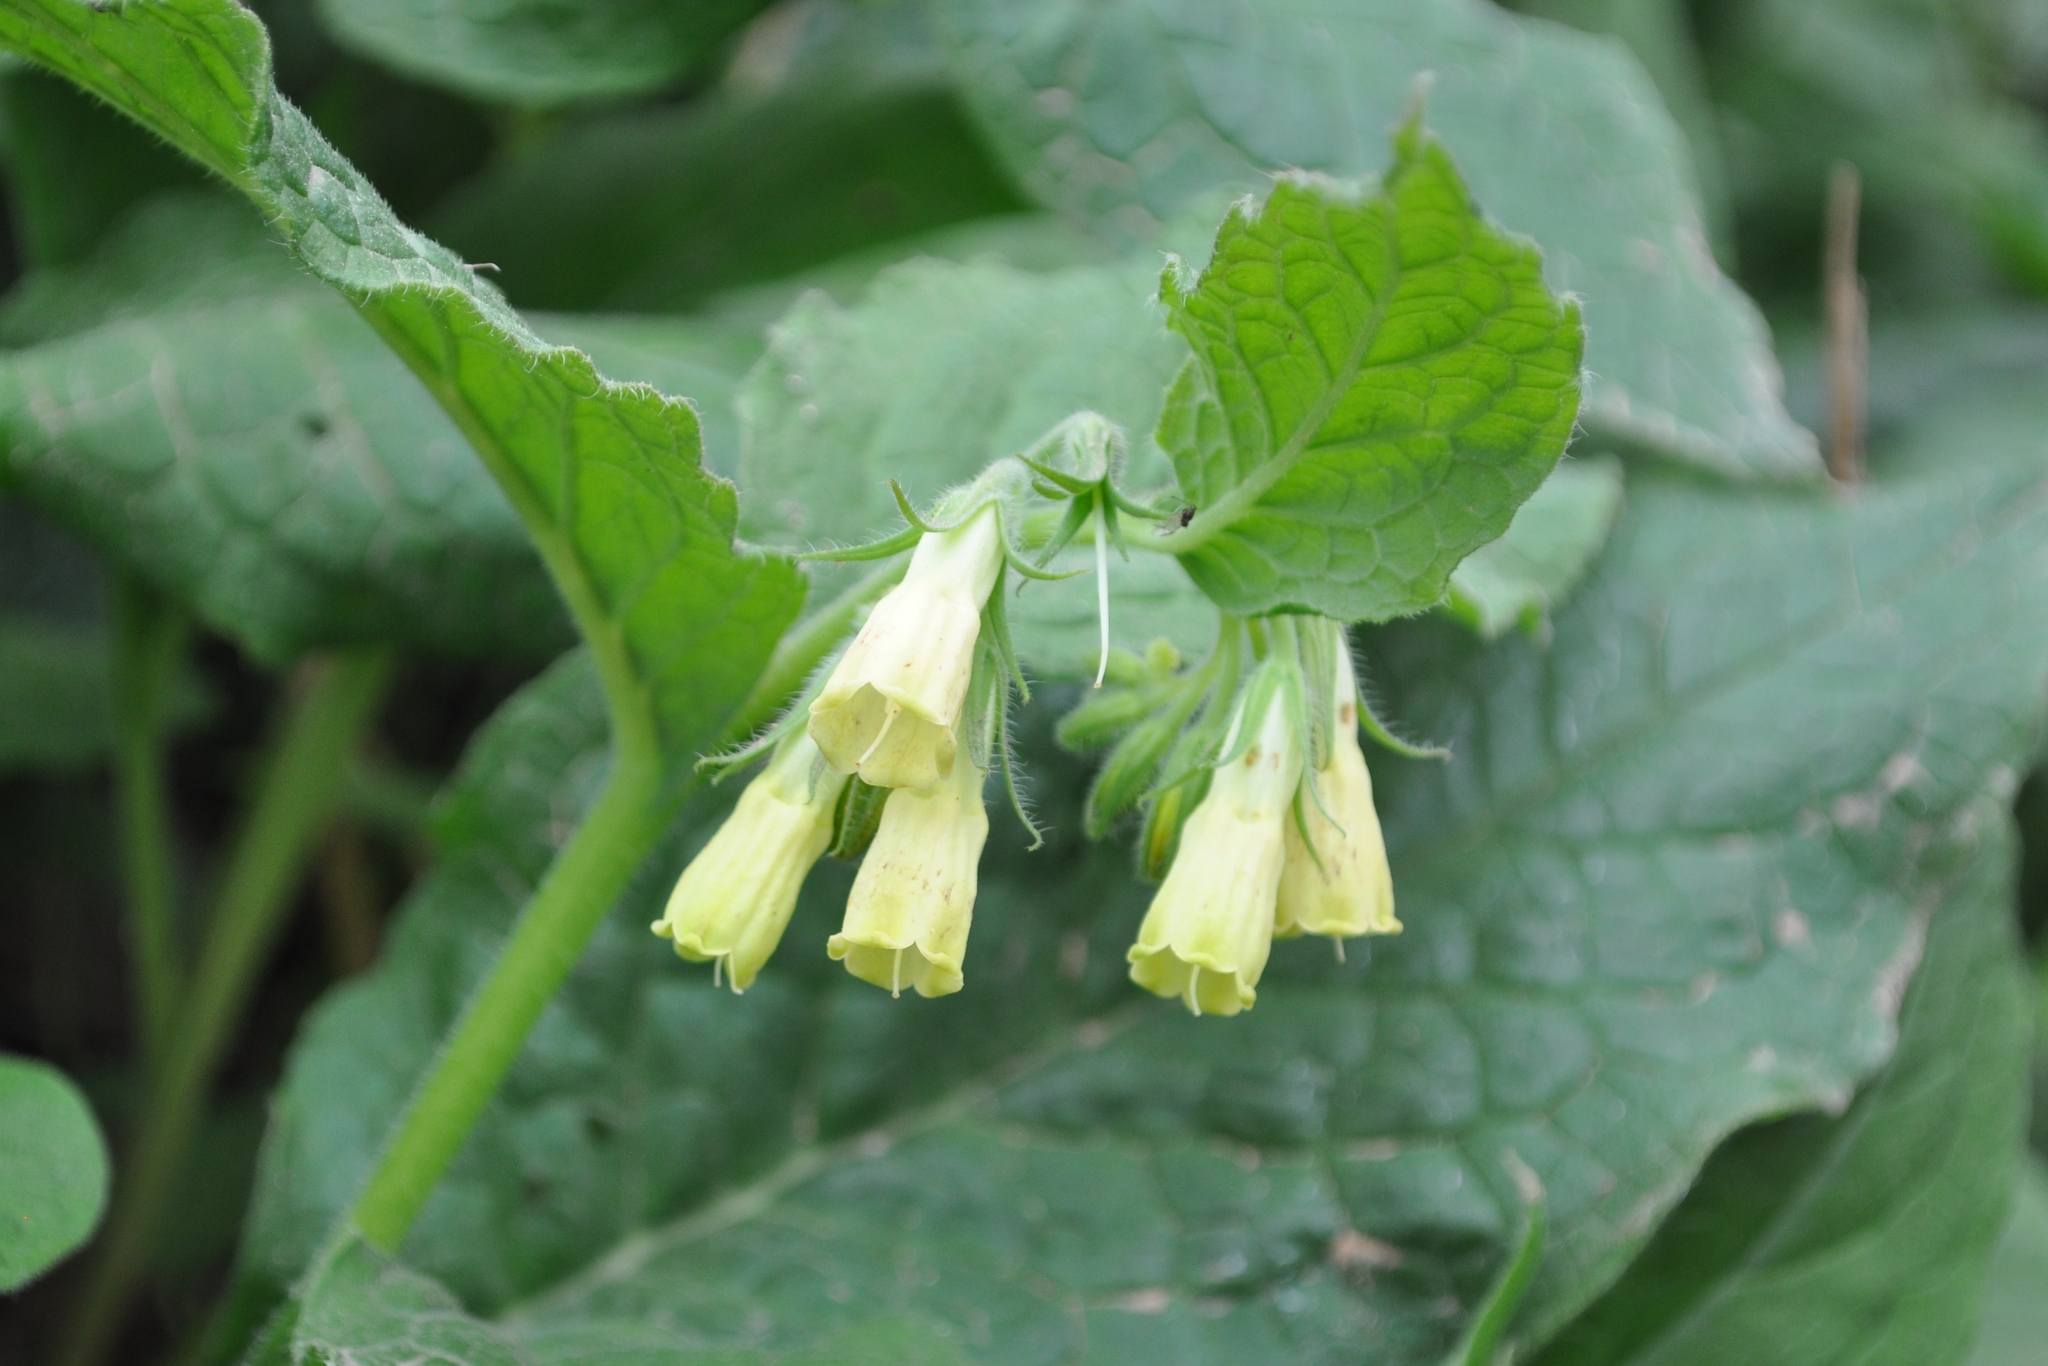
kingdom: Plantae
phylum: Tracheophyta
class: Magnoliopsida
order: Boraginales
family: Boraginaceae
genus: Symphytum
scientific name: Symphytum tuberosum
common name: Tuberous comfrey
